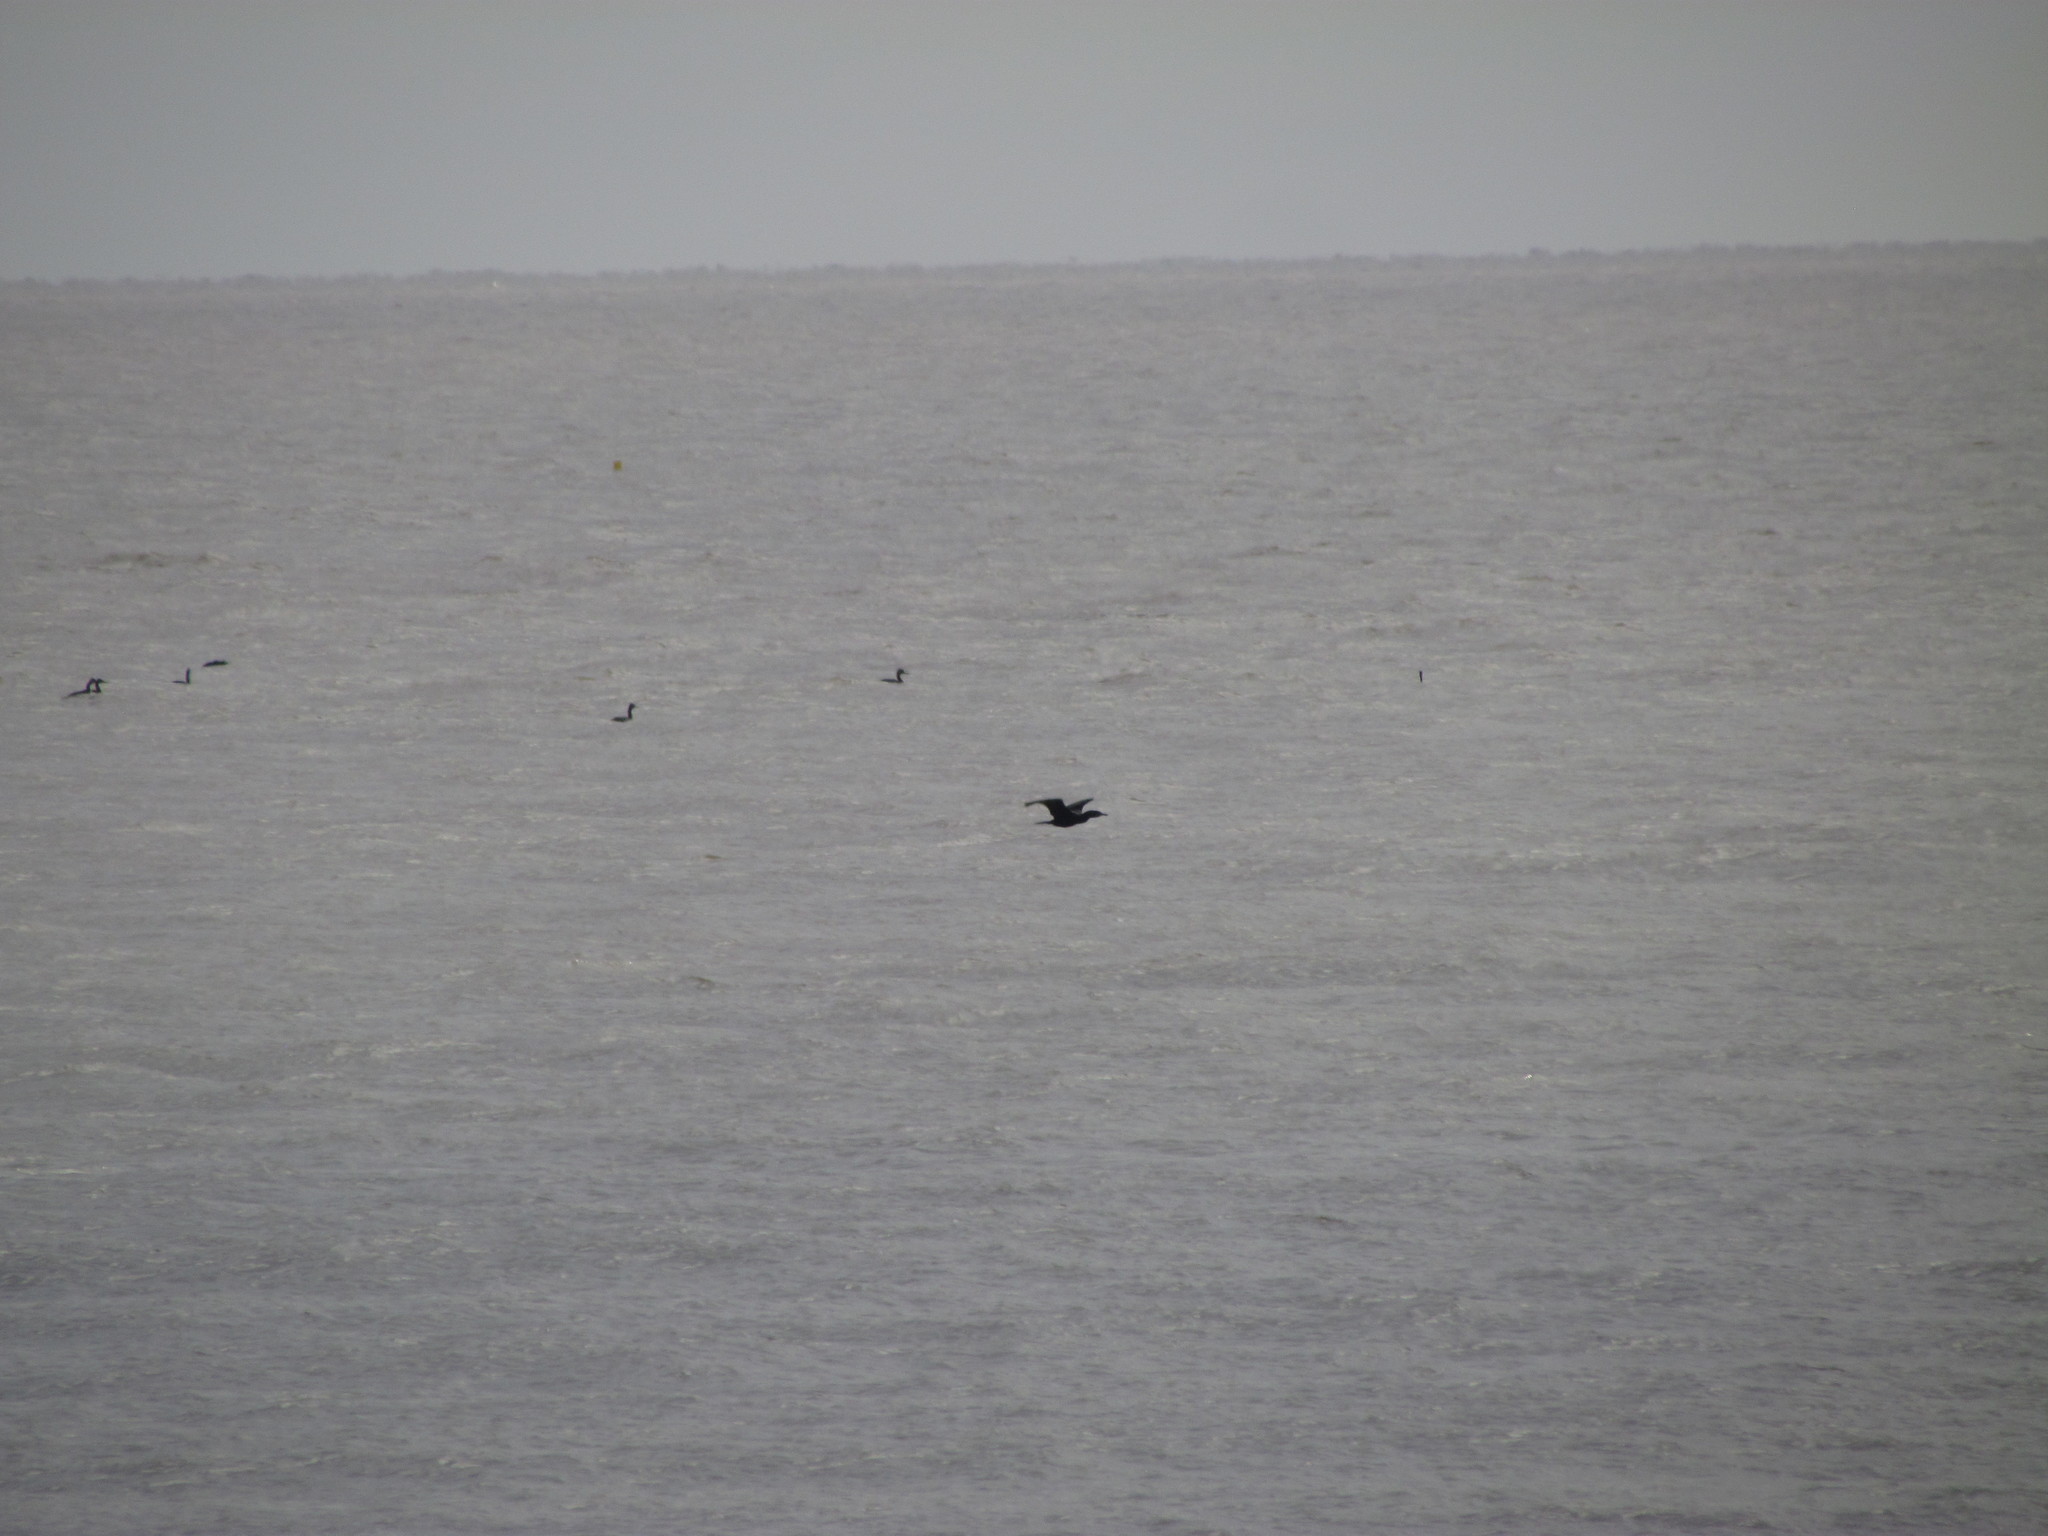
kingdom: Animalia
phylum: Chordata
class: Aves
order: Podicipediformes
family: Podicipedidae
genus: Podiceps
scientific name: Podiceps major
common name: Great grebe
